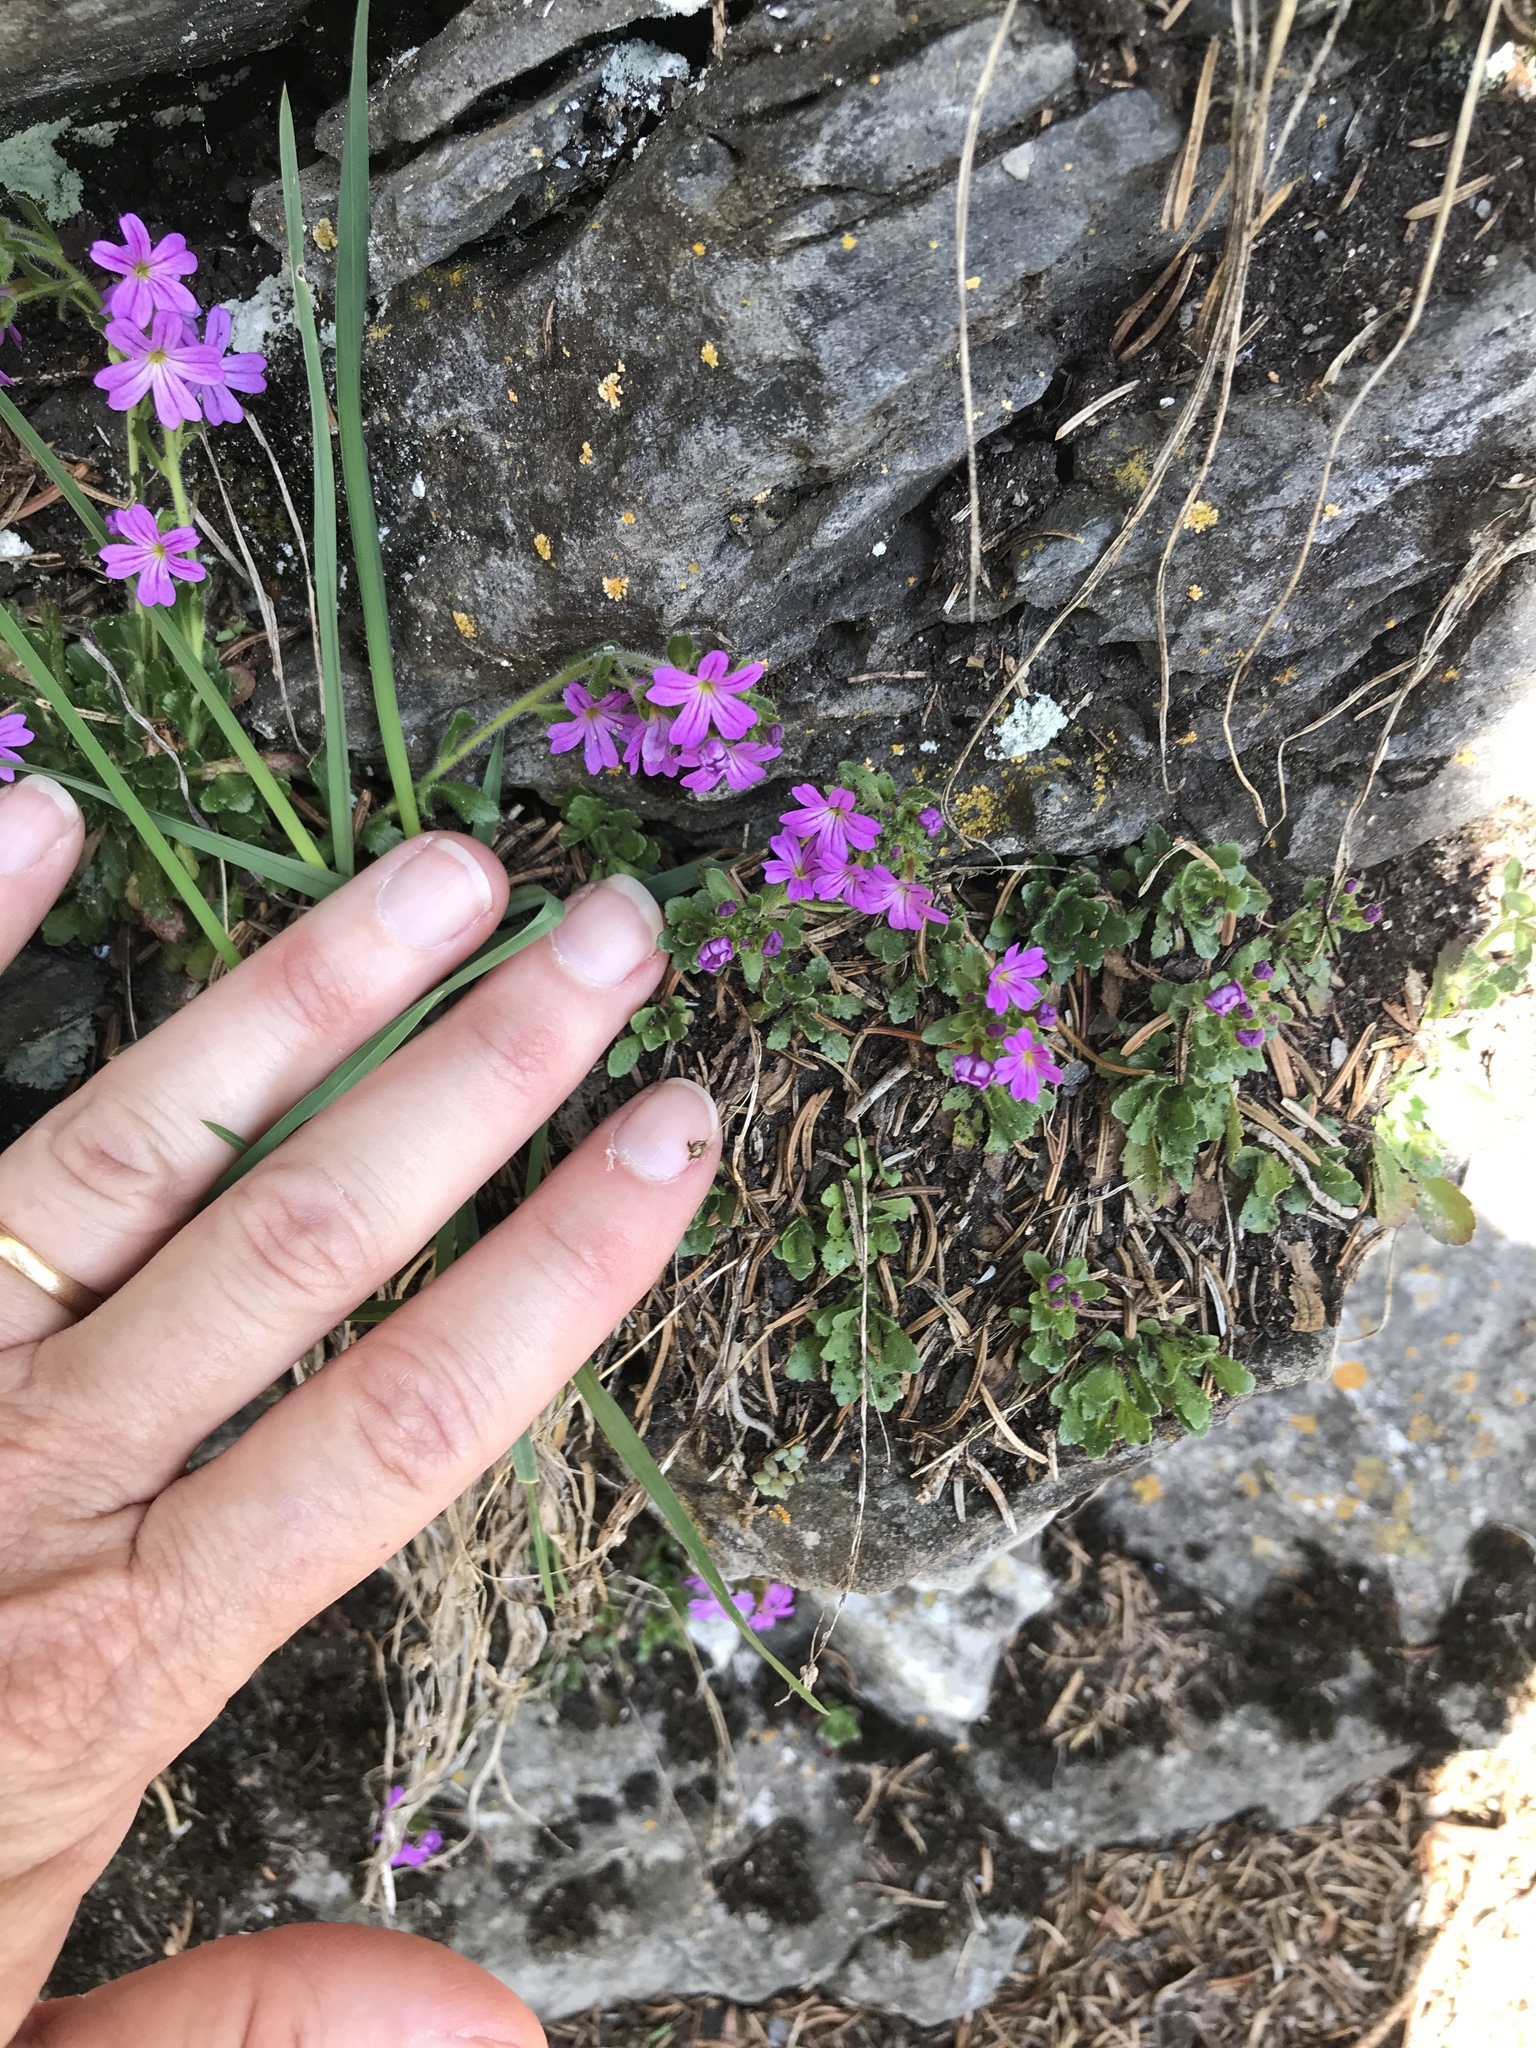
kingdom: Plantae
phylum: Tracheophyta
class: Magnoliopsida
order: Lamiales
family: Plantaginaceae
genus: Erinus
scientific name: Erinus alpinus
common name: Fairy foxglove
